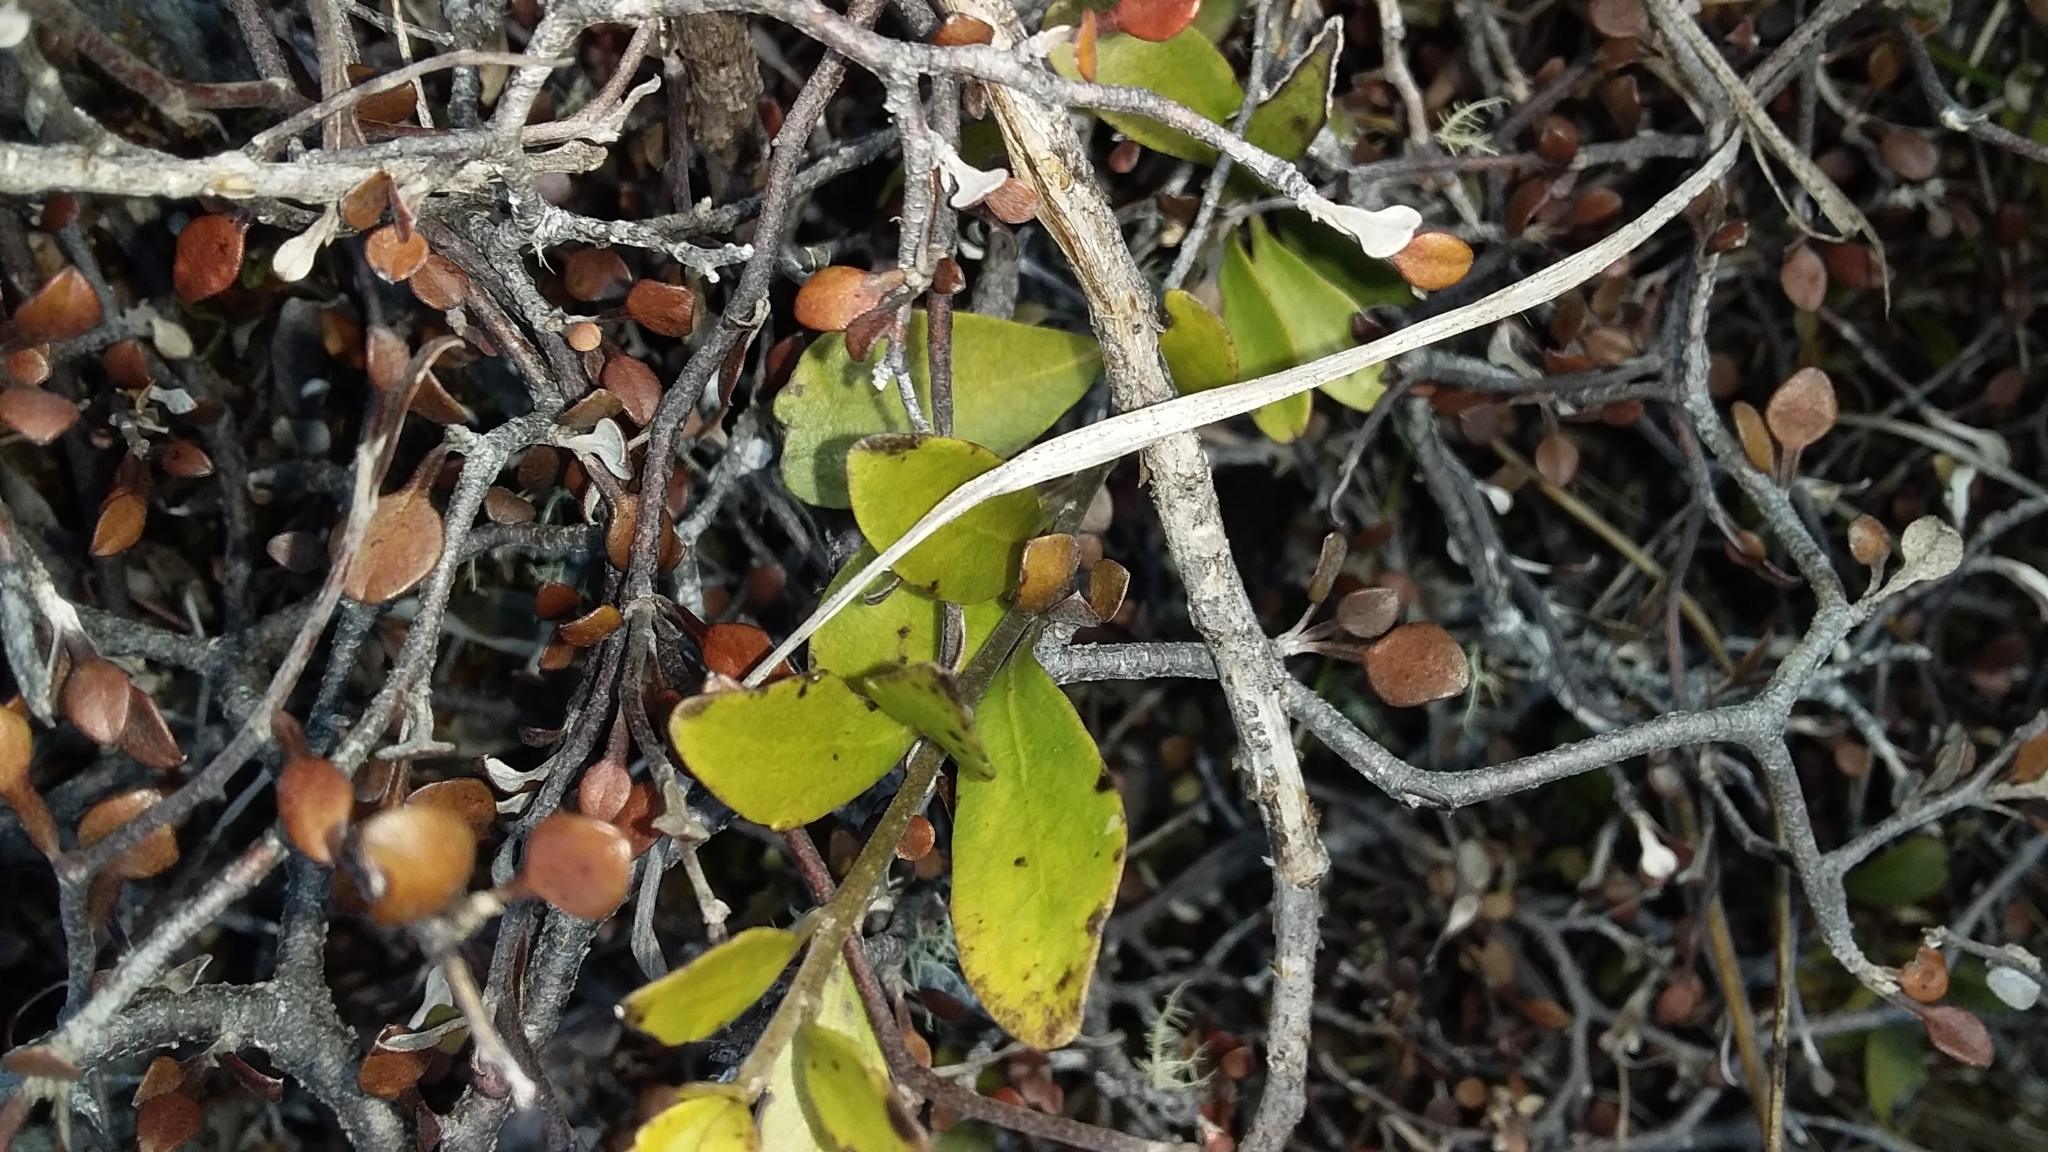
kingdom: Plantae
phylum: Tracheophyta
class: Magnoliopsida
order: Malpighiales
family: Violaceae
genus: Melicytus
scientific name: Melicytus obovatus
